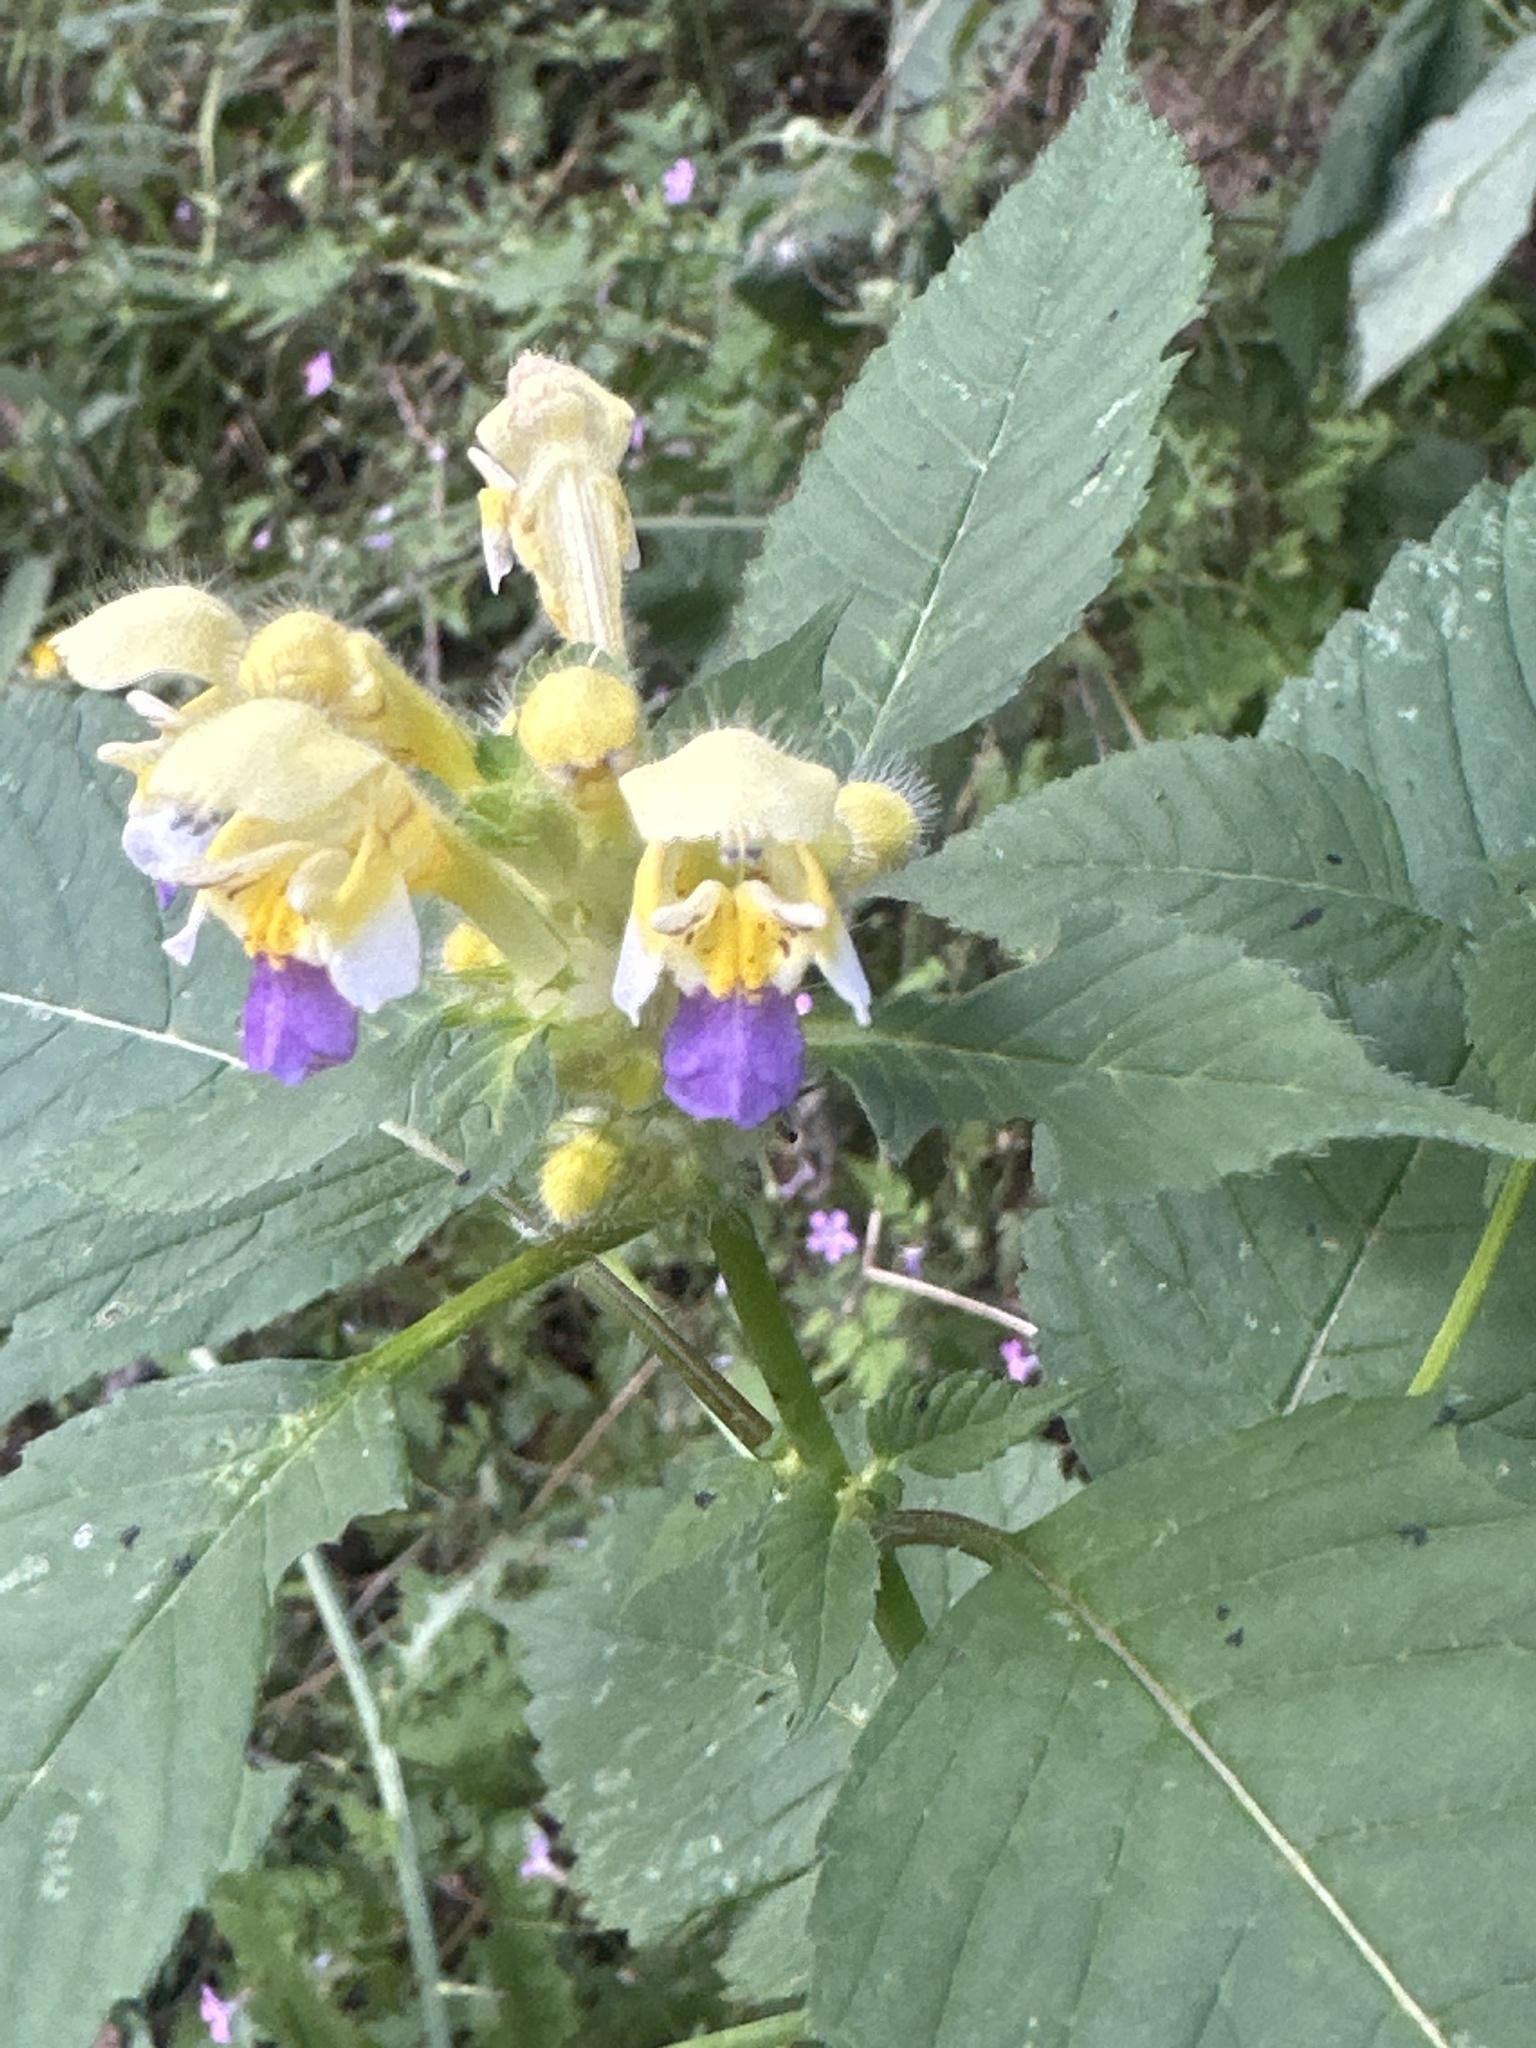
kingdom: Plantae
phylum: Tracheophyta
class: Magnoliopsida
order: Lamiales
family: Lamiaceae
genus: Galeopsis
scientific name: Galeopsis speciosa
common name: Large-flowered hemp-nettle
